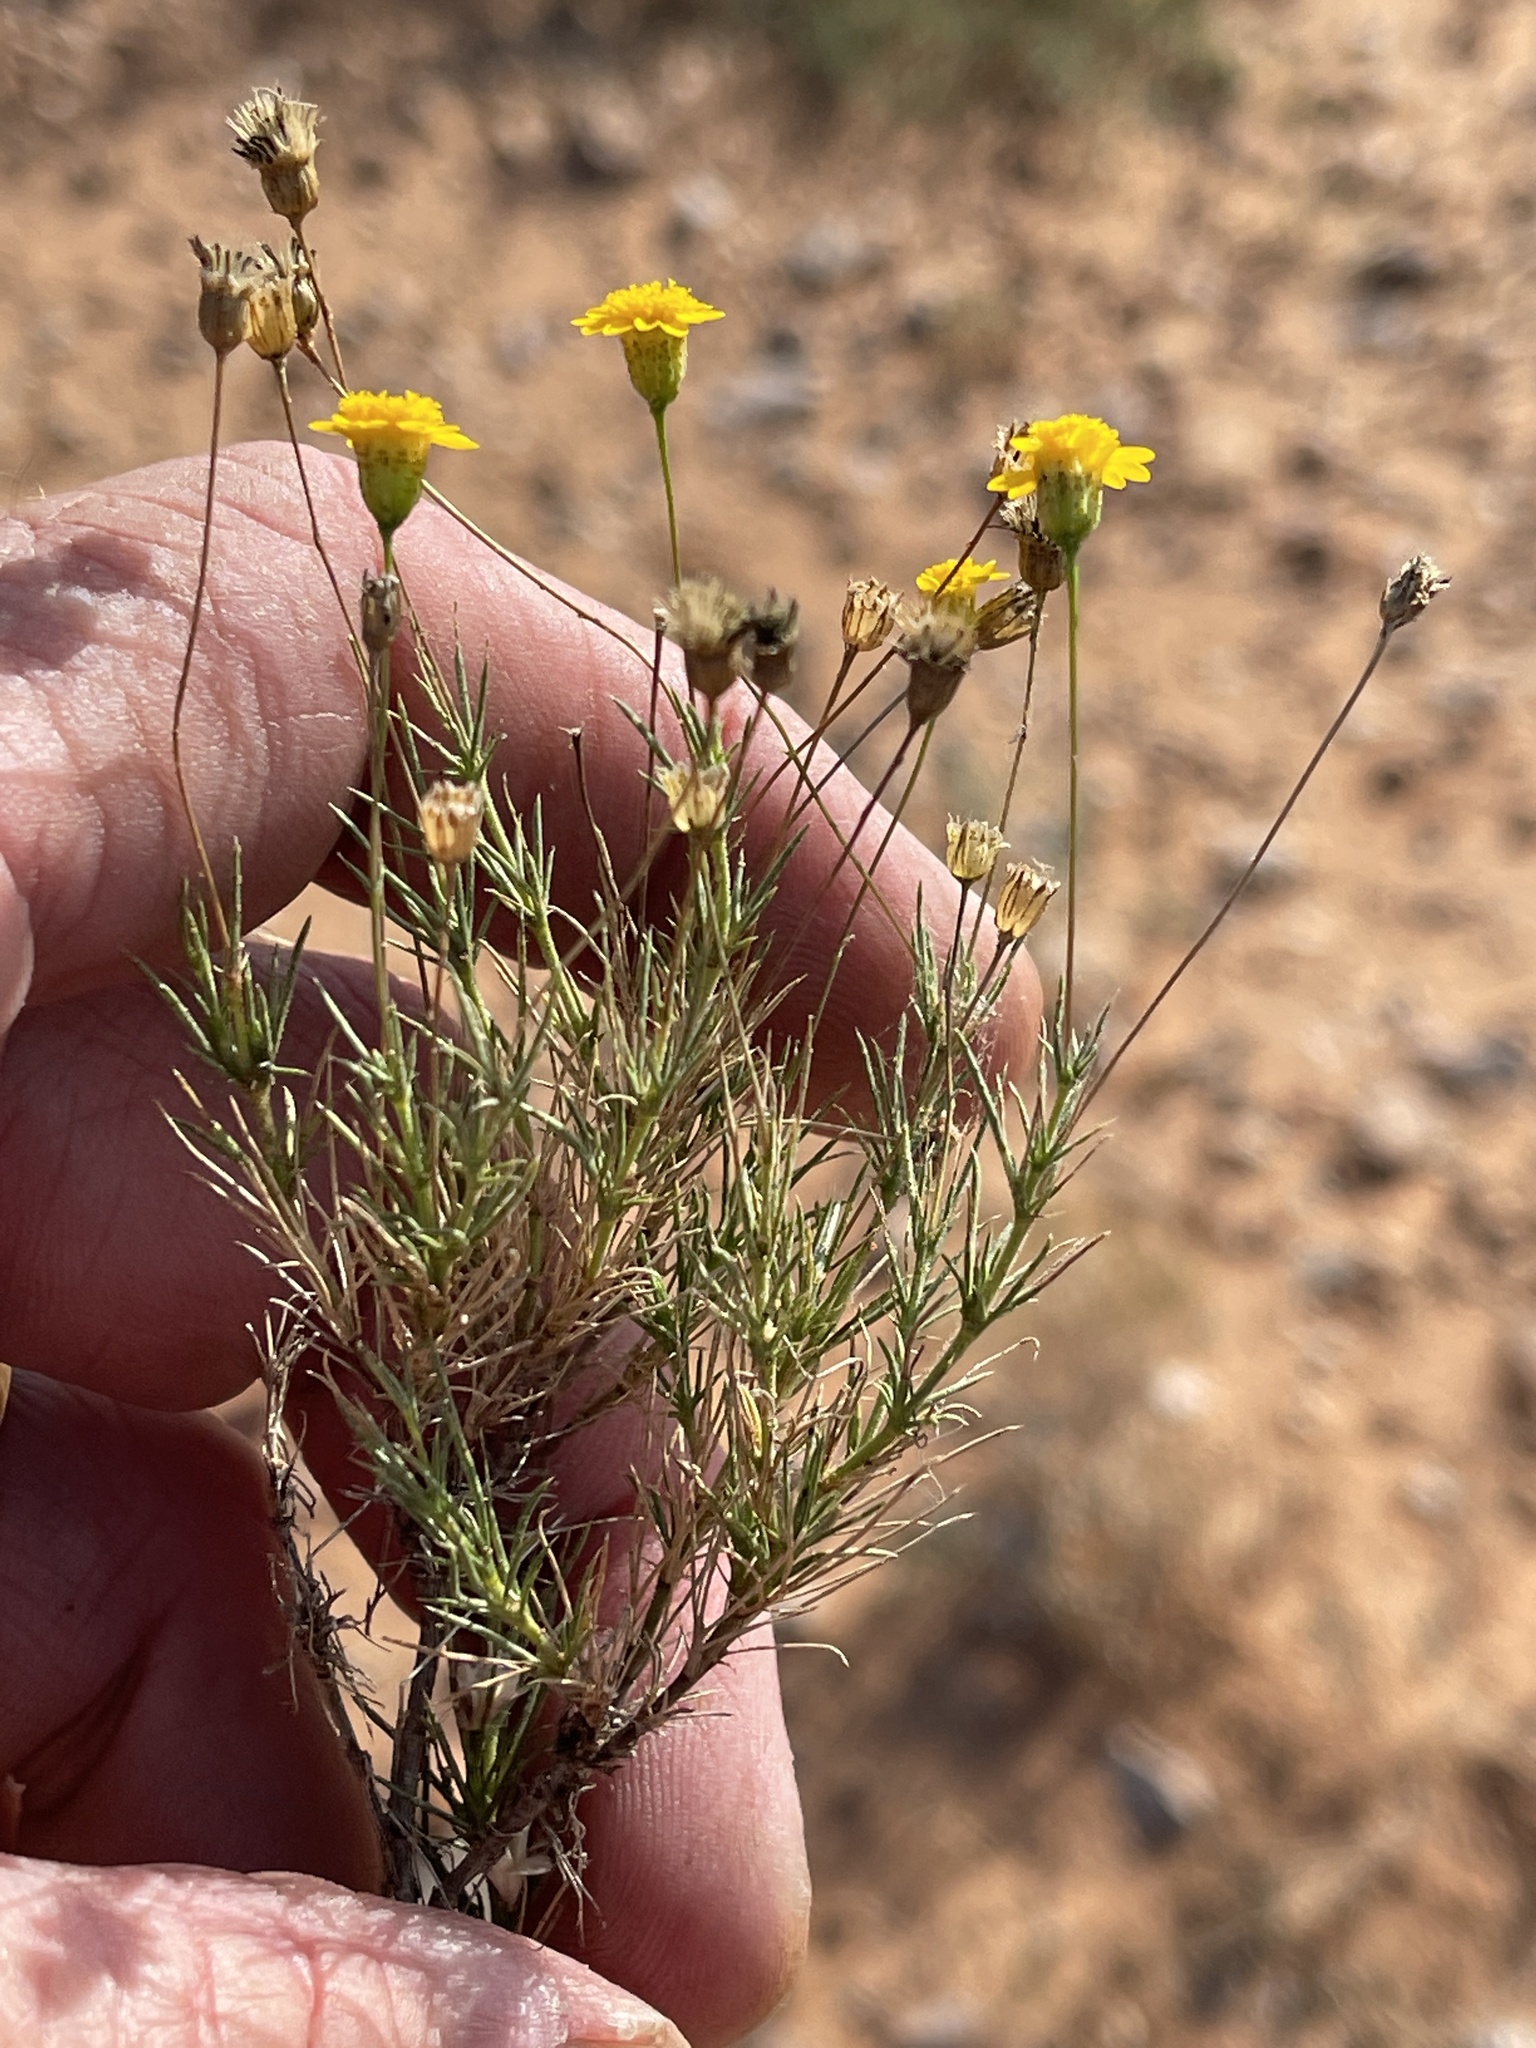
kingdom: Plantae
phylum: Tracheophyta
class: Magnoliopsida
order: Asterales
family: Asteraceae
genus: Thymophylla
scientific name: Thymophylla pentachaeta
